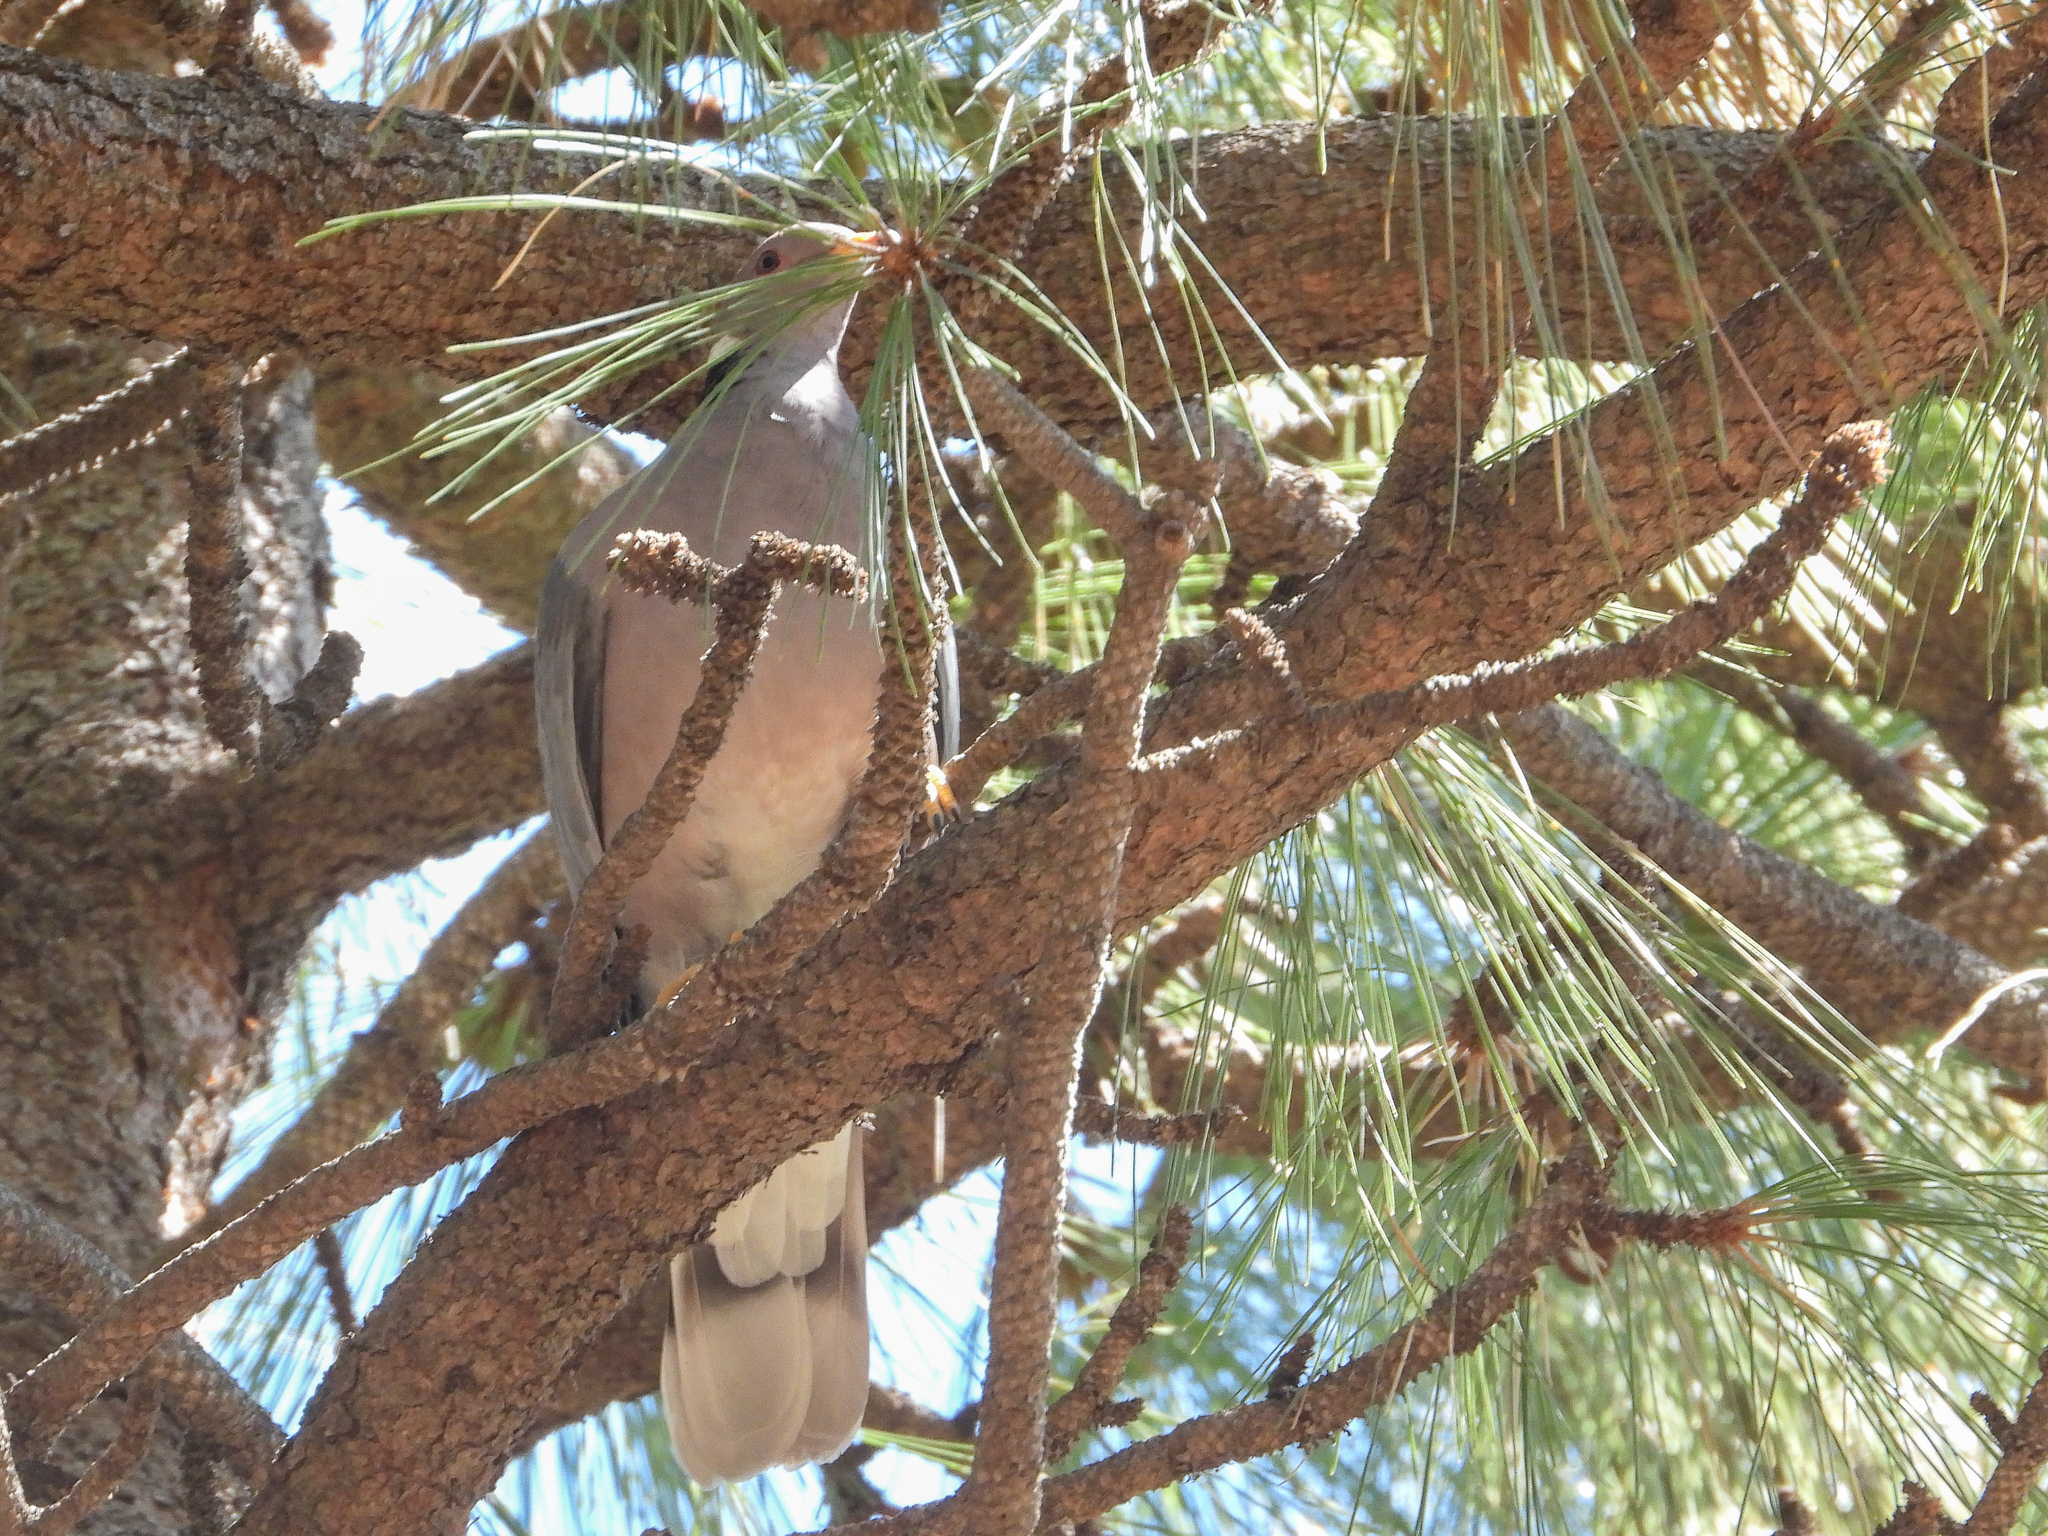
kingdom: Animalia
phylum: Chordata
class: Aves
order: Columbiformes
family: Columbidae
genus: Patagioenas
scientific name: Patagioenas fasciata
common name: Band-tailed pigeon
